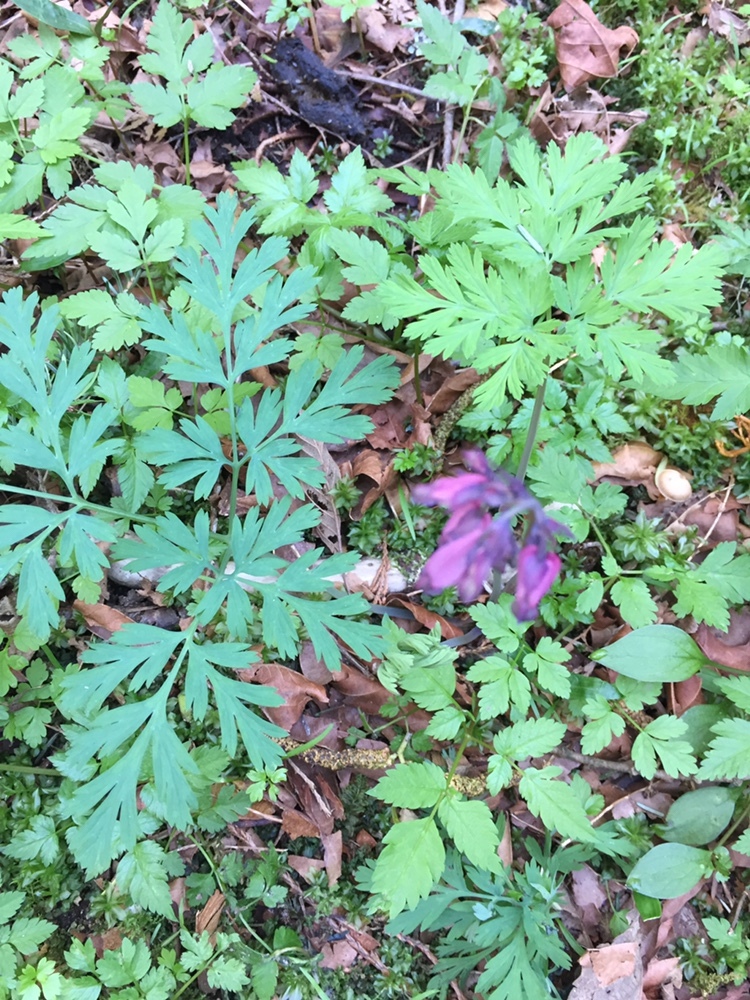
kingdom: Plantae
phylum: Tracheophyta
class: Magnoliopsida
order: Ranunculales
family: Papaveraceae
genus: Dicentra
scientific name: Dicentra formosa
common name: Bleeding-heart
